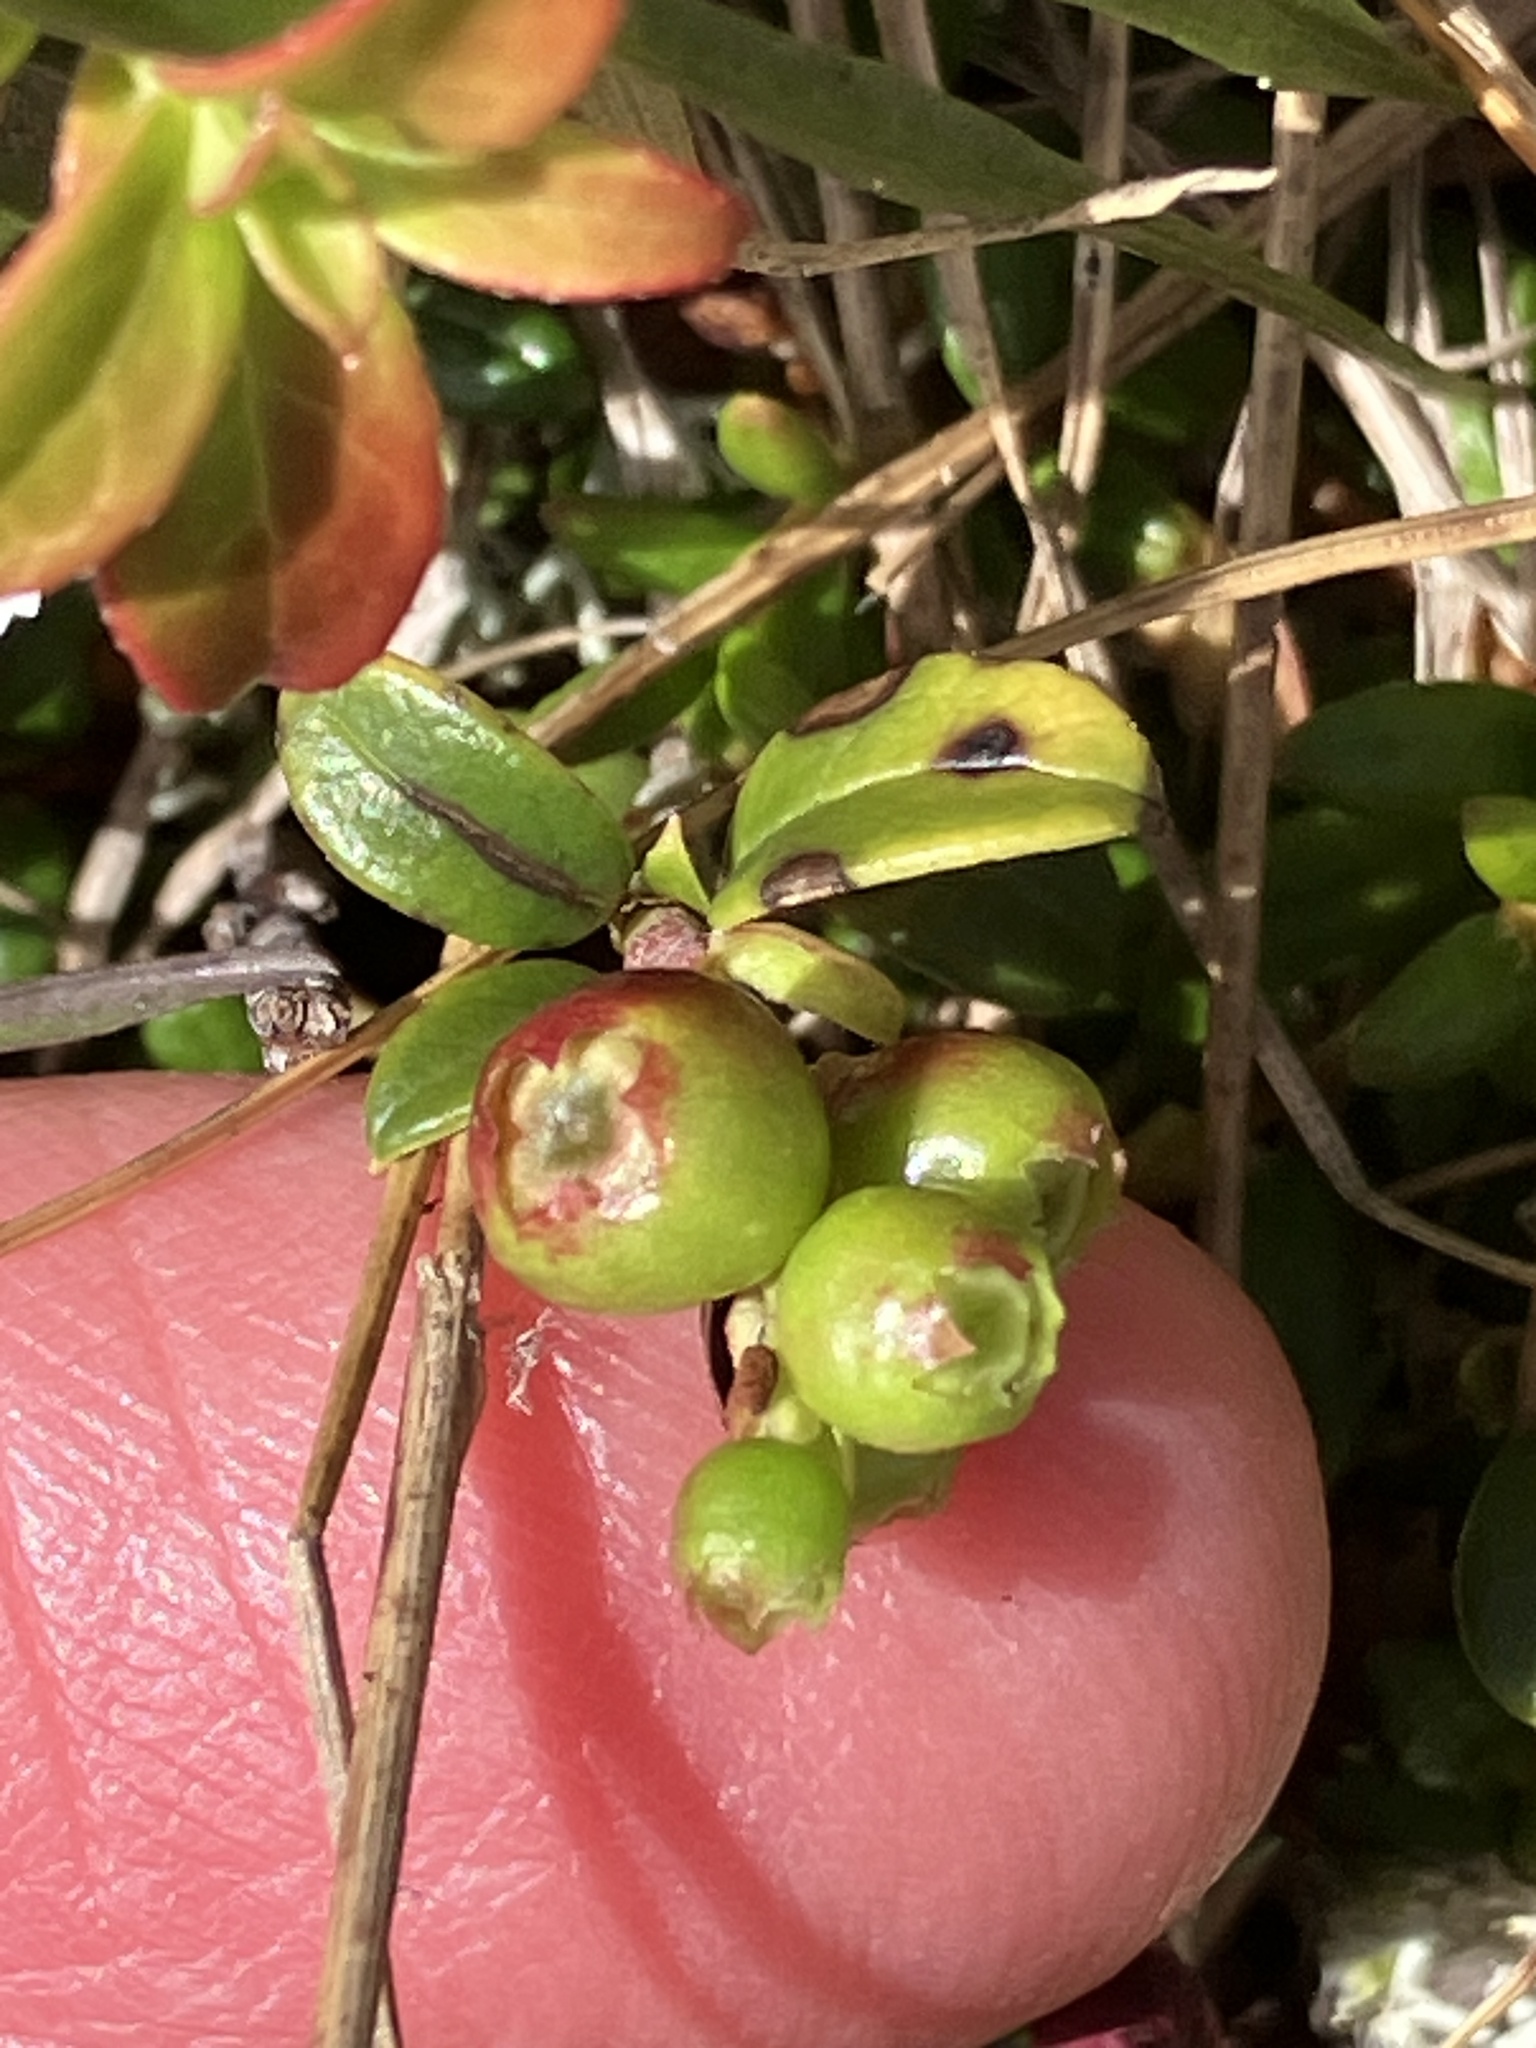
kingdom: Plantae
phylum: Tracheophyta
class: Magnoliopsida
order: Ericales
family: Ericaceae
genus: Vaccinium
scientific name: Vaccinium vitis-idaea
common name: Cowberry
